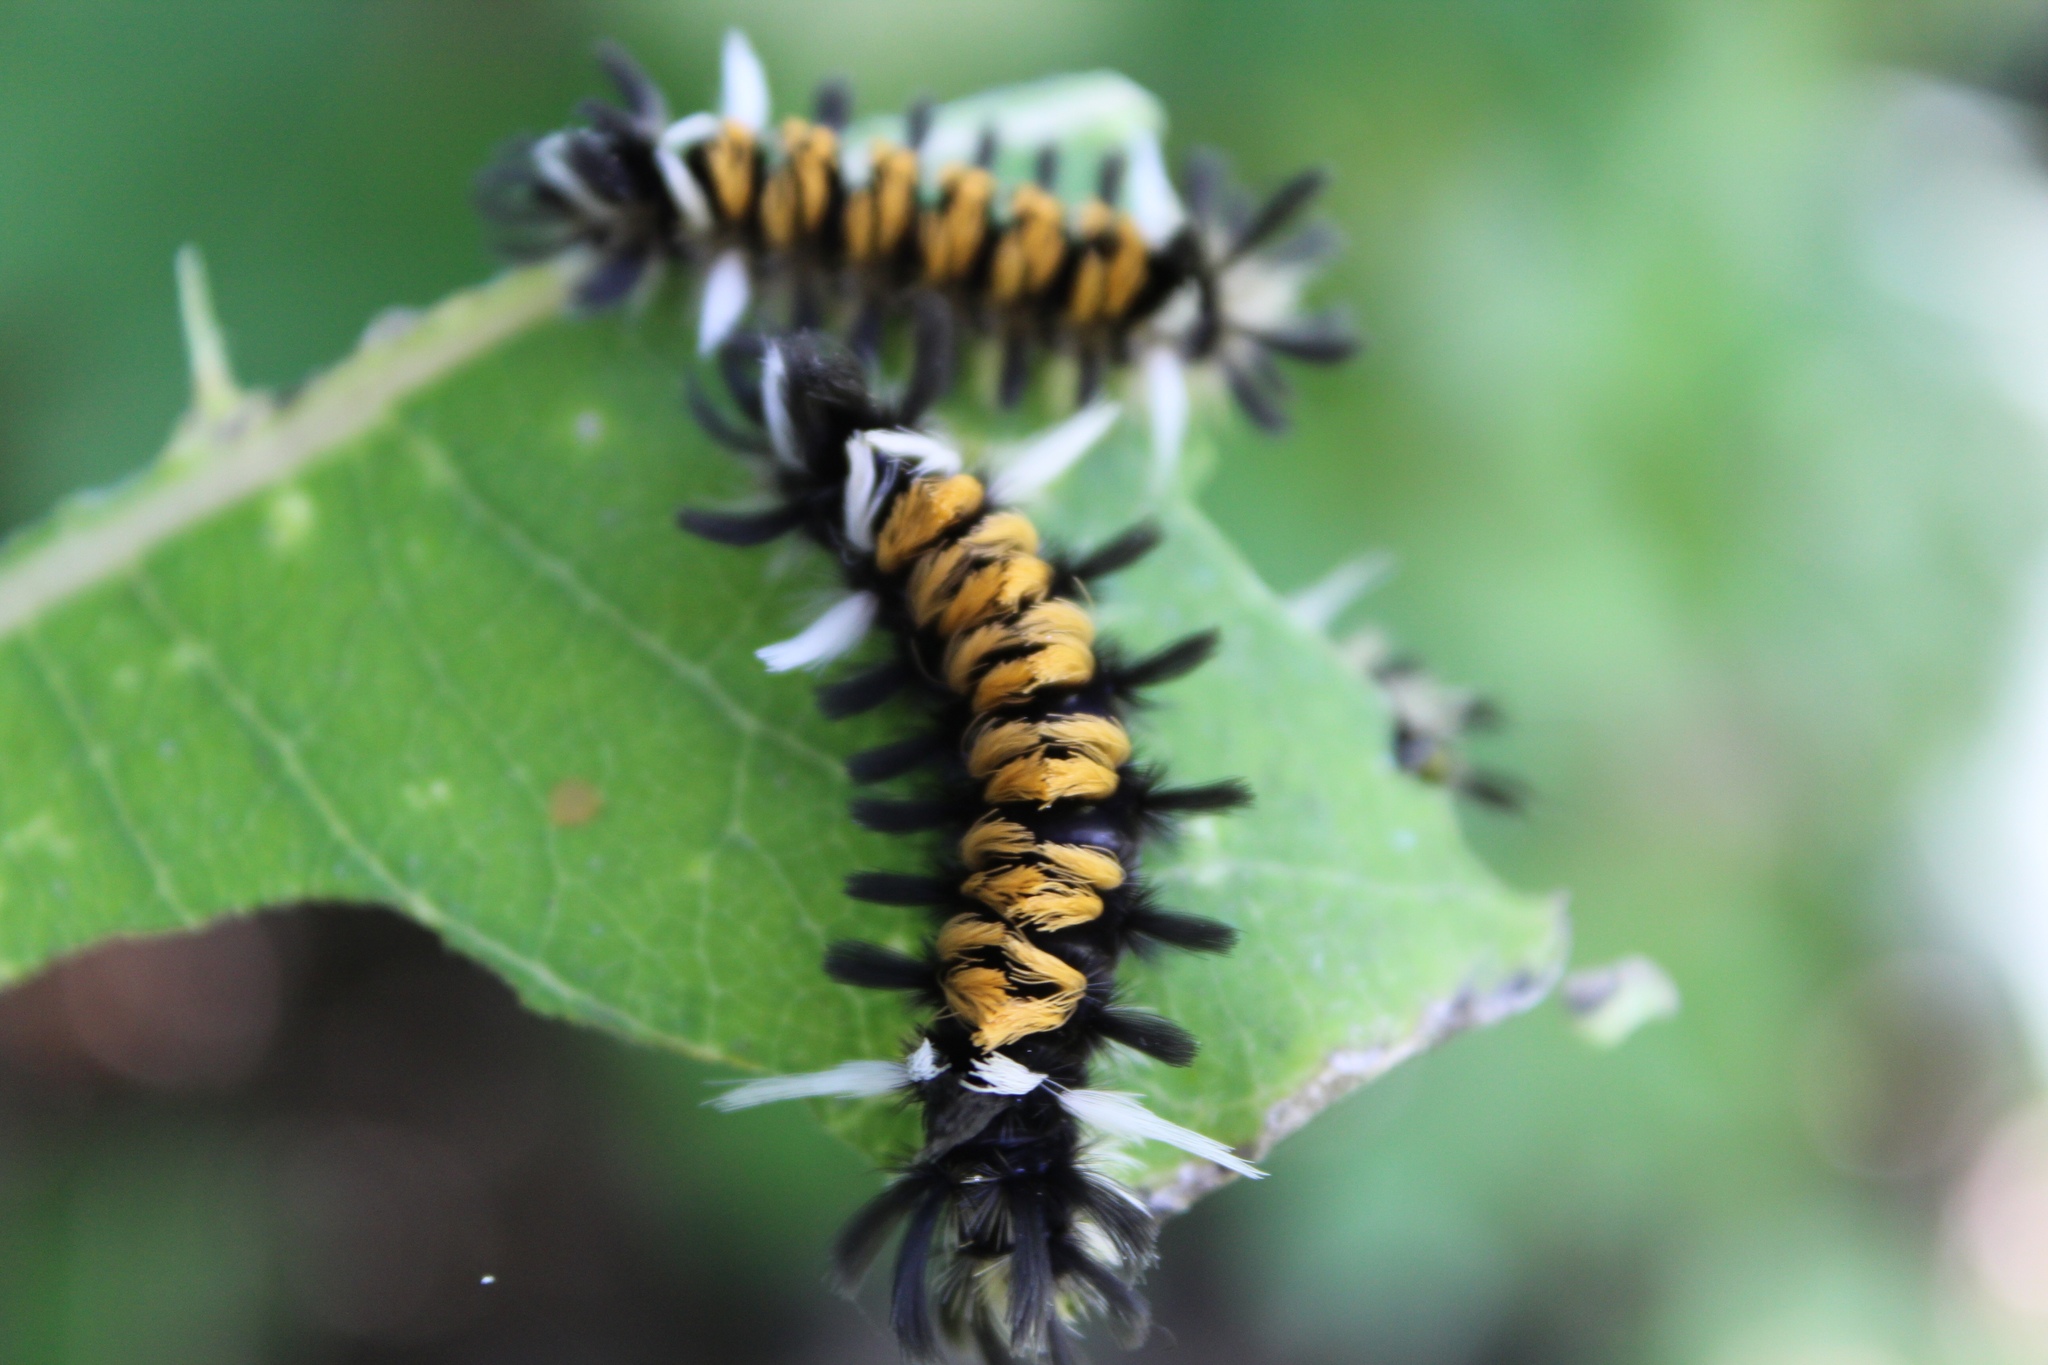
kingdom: Animalia
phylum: Arthropoda
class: Insecta
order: Lepidoptera
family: Erebidae
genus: Euchaetes
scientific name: Euchaetes egle
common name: Milkweed tussock moth
